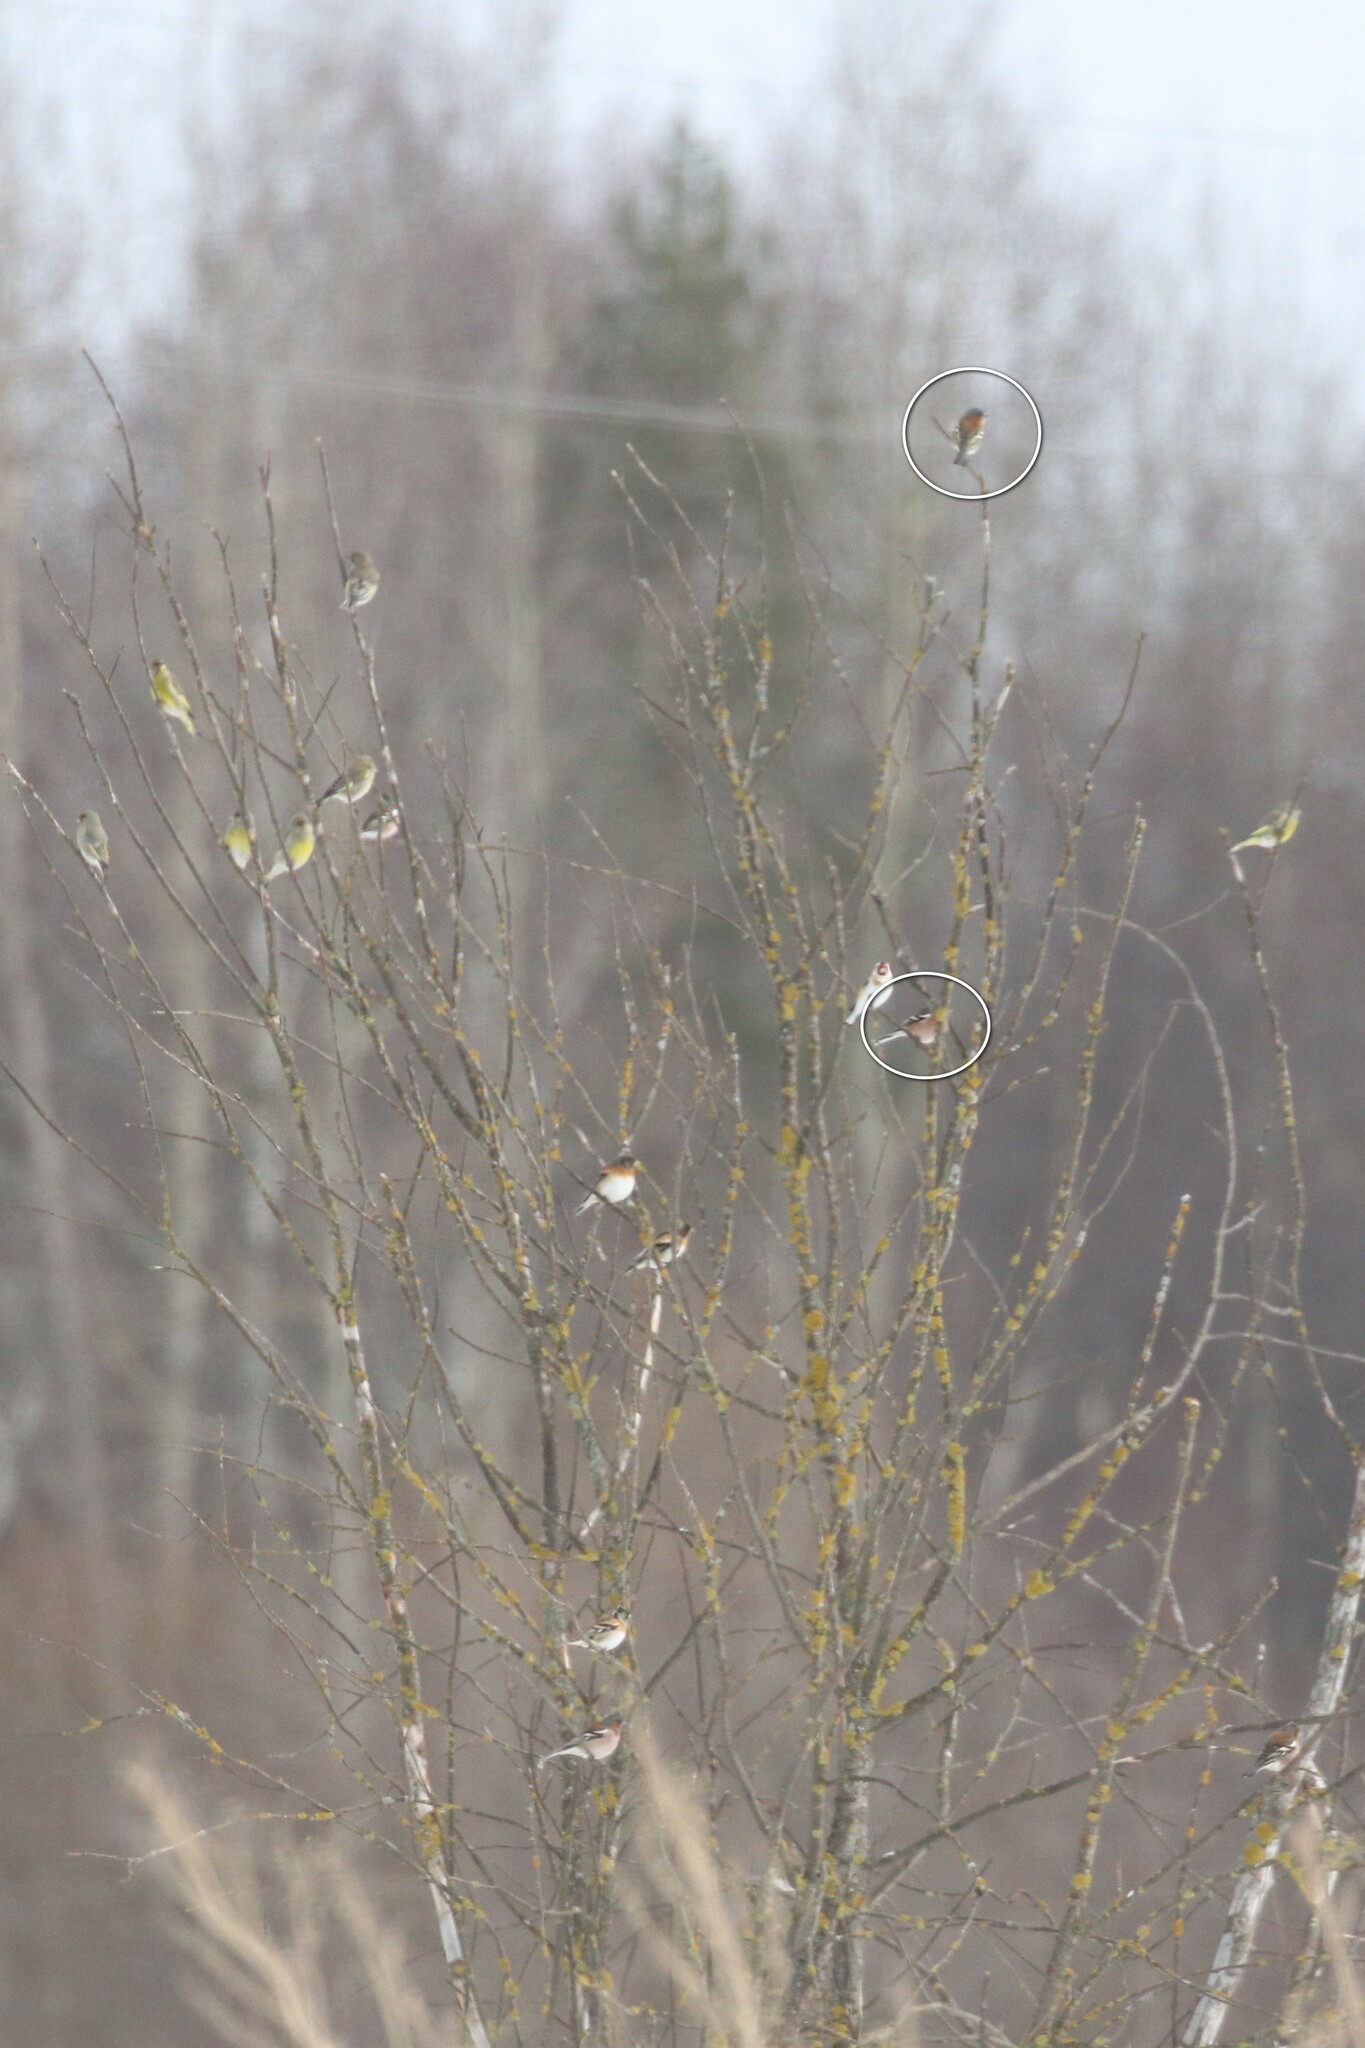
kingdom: Animalia
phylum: Chordata
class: Aves
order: Passeriformes
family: Fringillidae
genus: Fringilla
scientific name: Fringilla coelebs
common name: Common chaffinch
